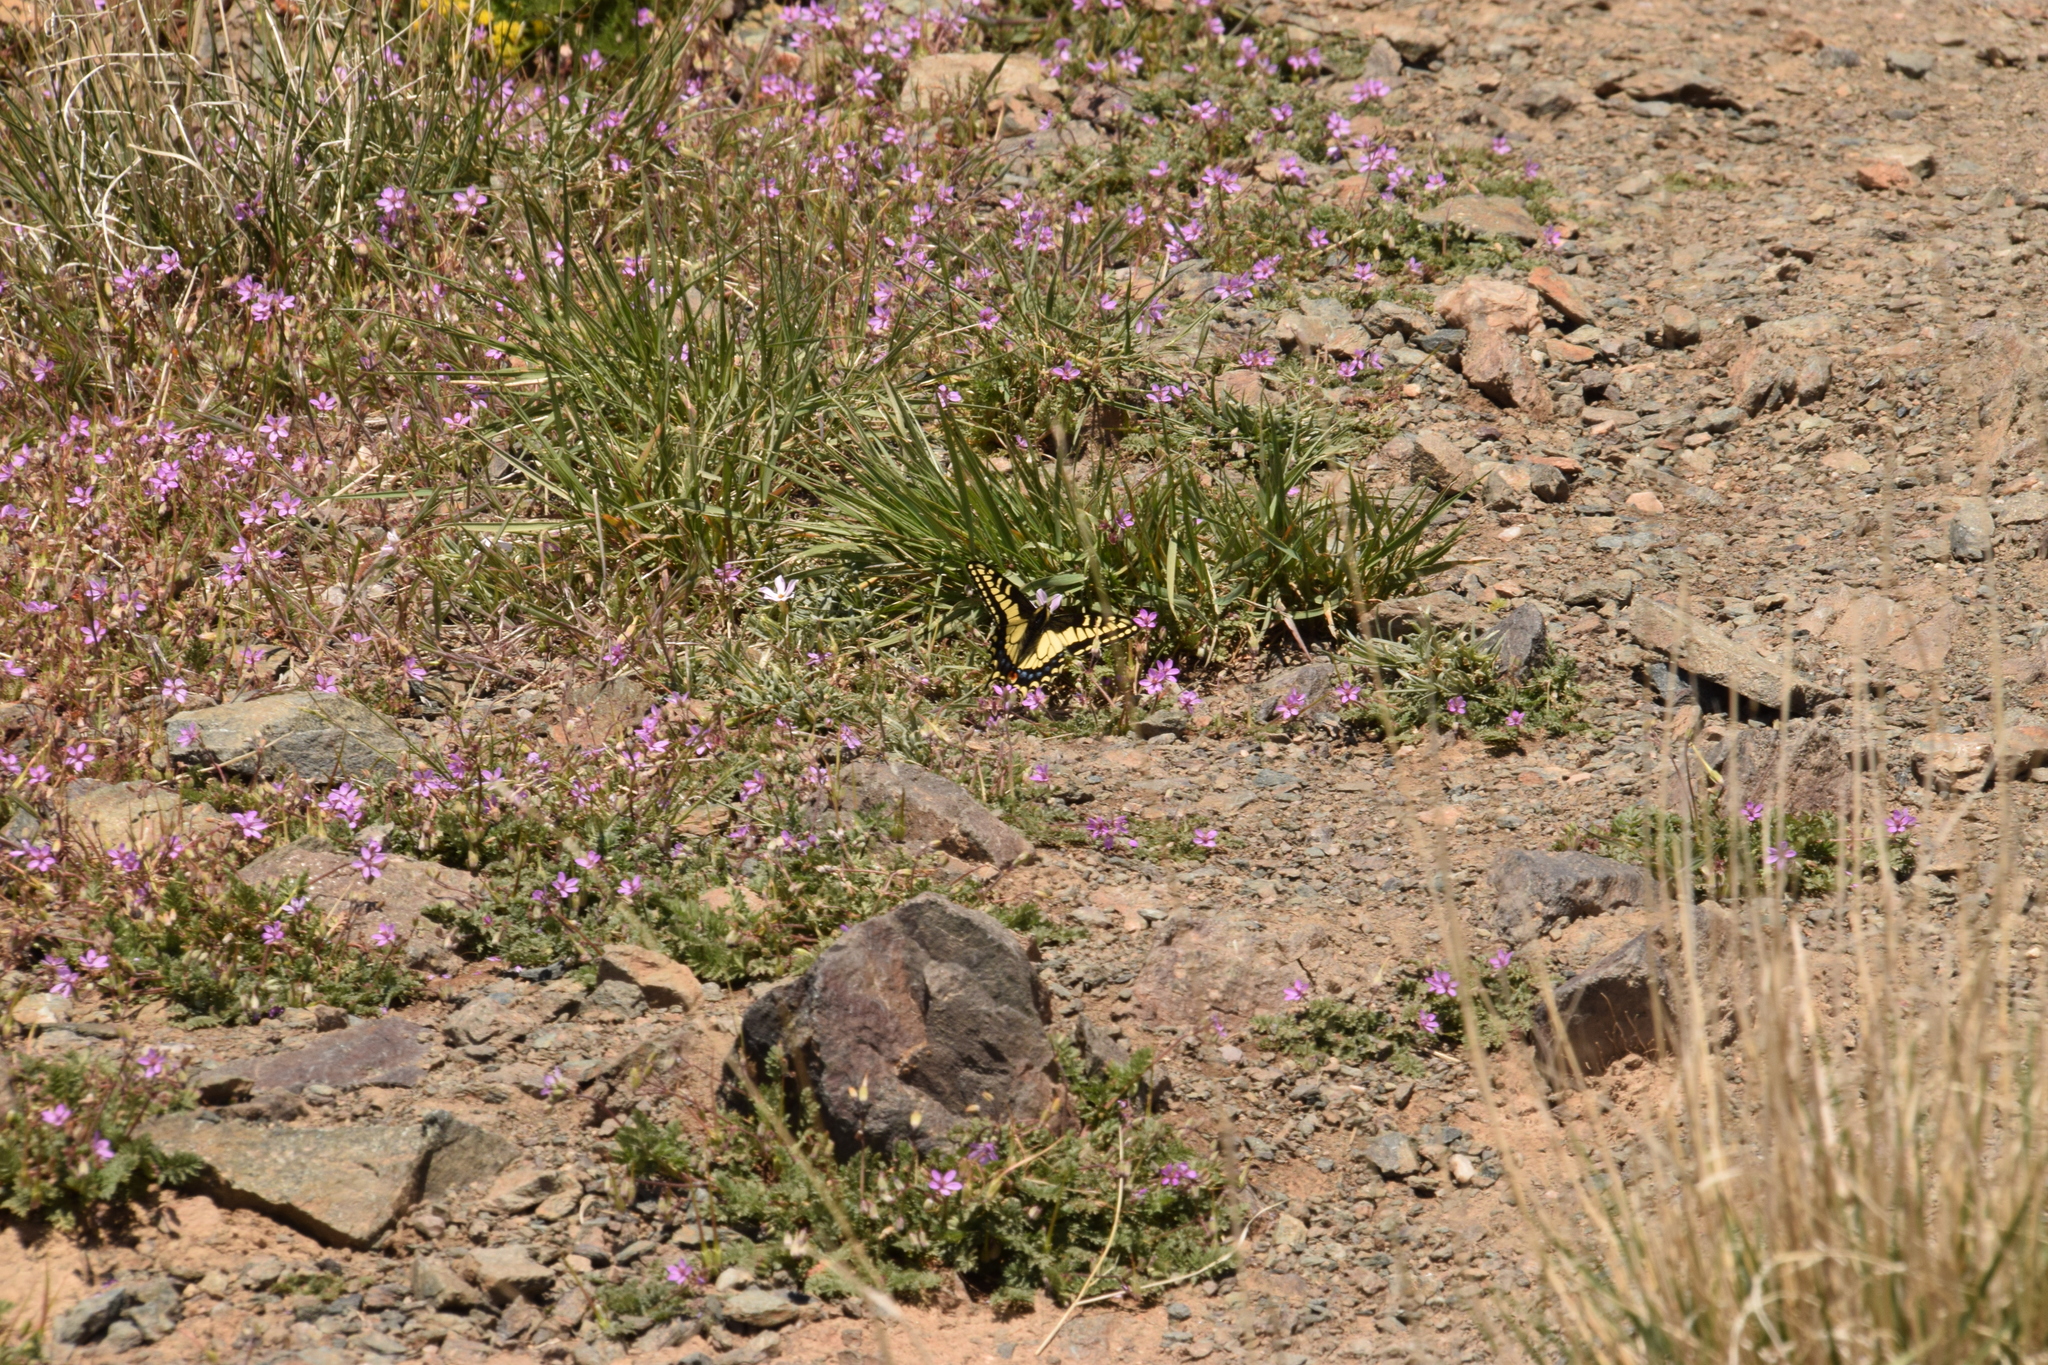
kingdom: Animalia
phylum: Arthropoda
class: Insecta
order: Lepidoptera
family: Papilionidae
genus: Papilio
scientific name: Papilio zelicaon
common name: Anise swallowtail
